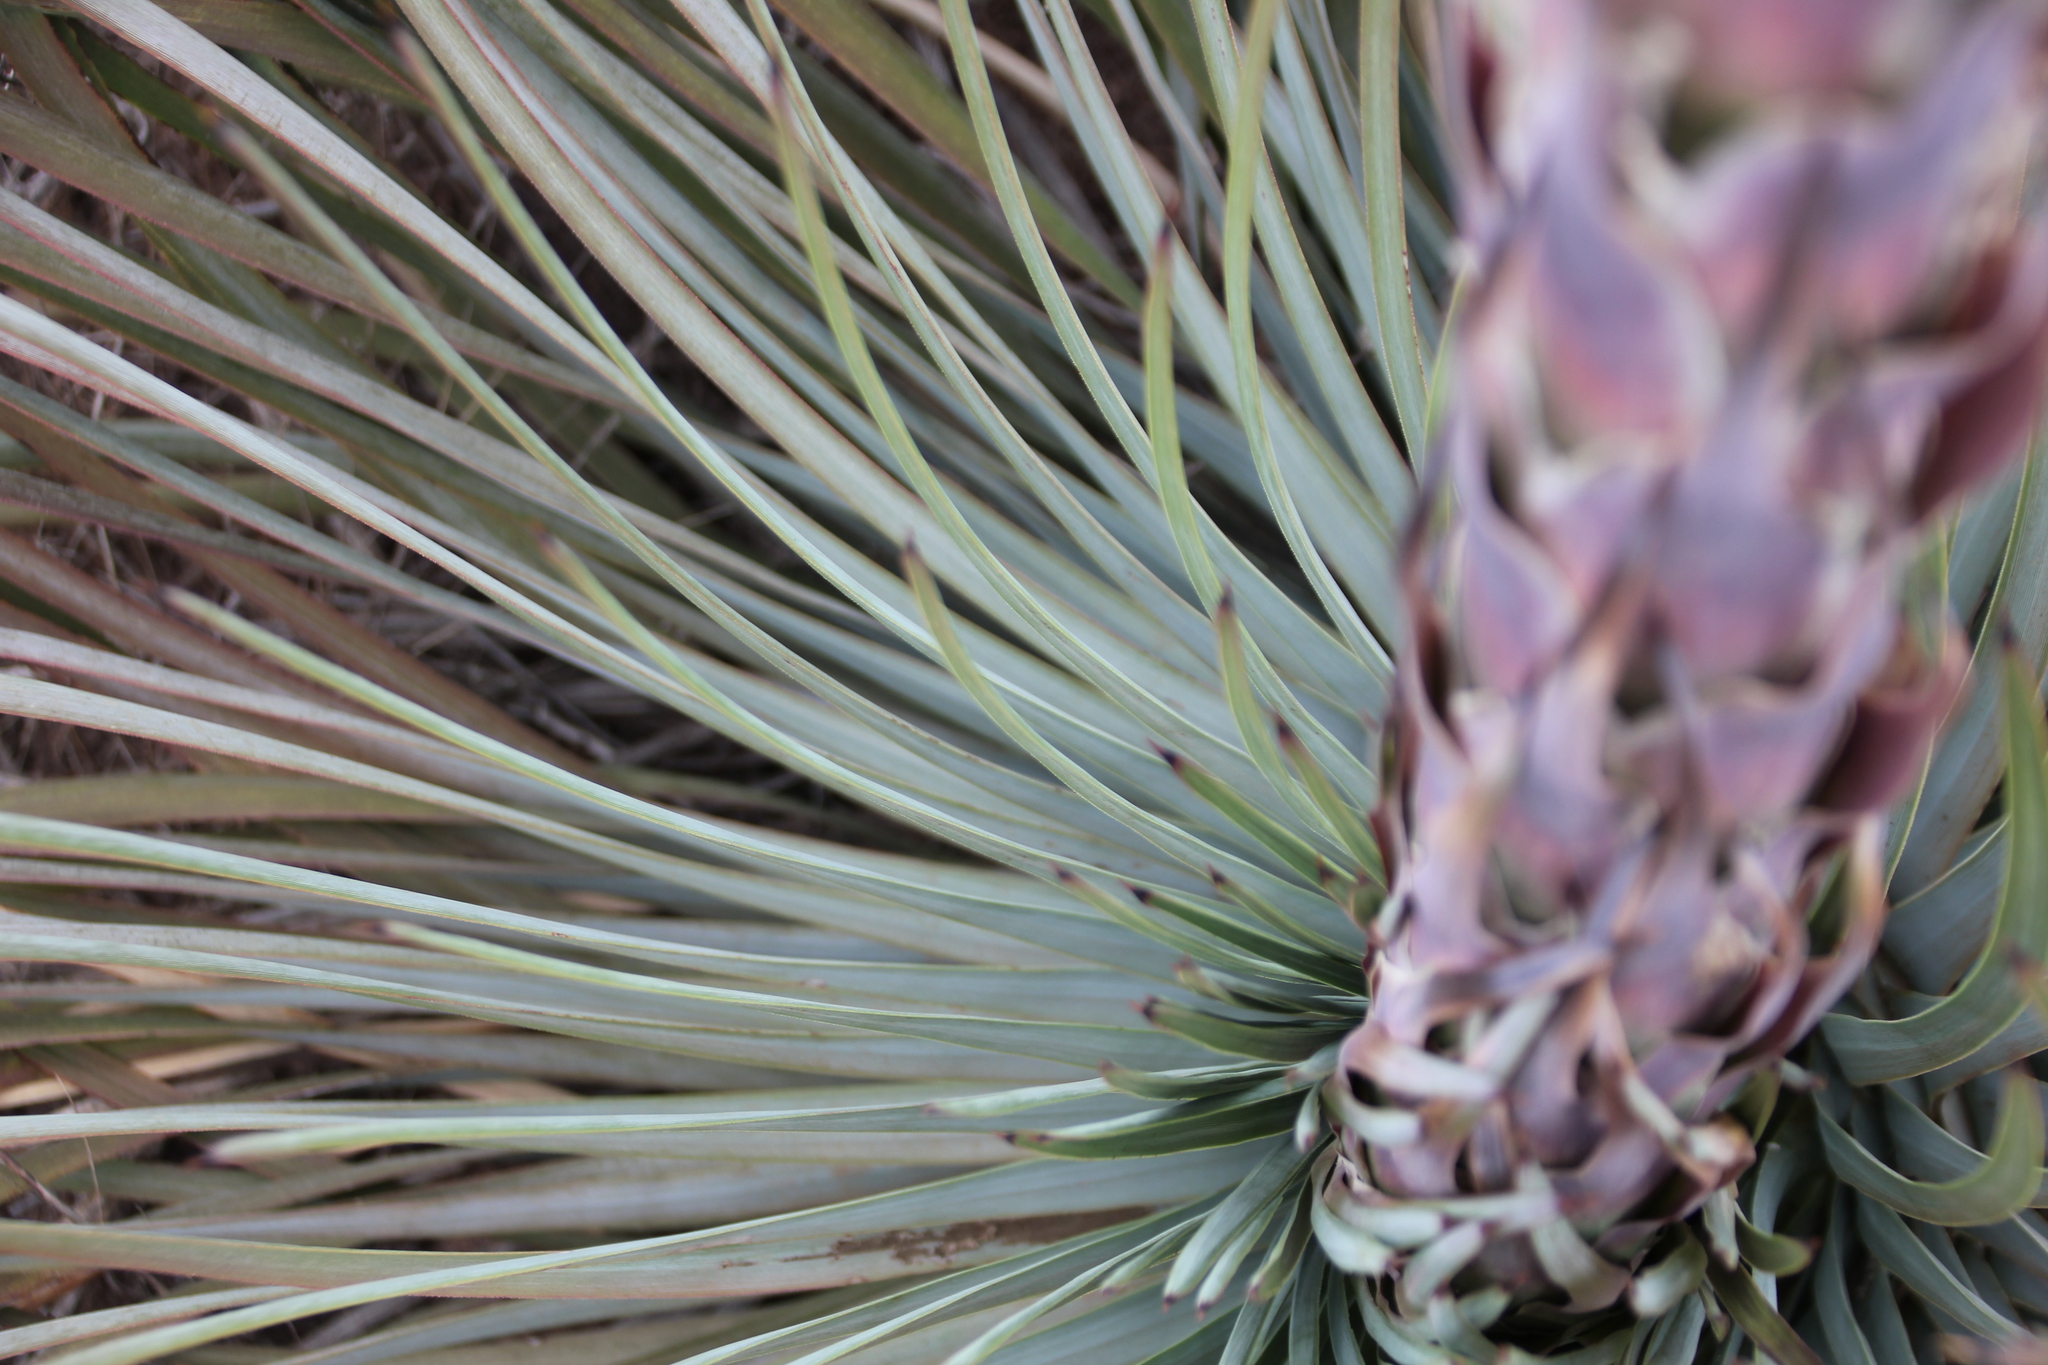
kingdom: Plantae
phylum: Tracheophyta
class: Liliopsida
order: Asparagales
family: Asparagaceae
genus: Hesperoyucca
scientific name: Hesperoyucca whipplei
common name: Our lord's-candle
